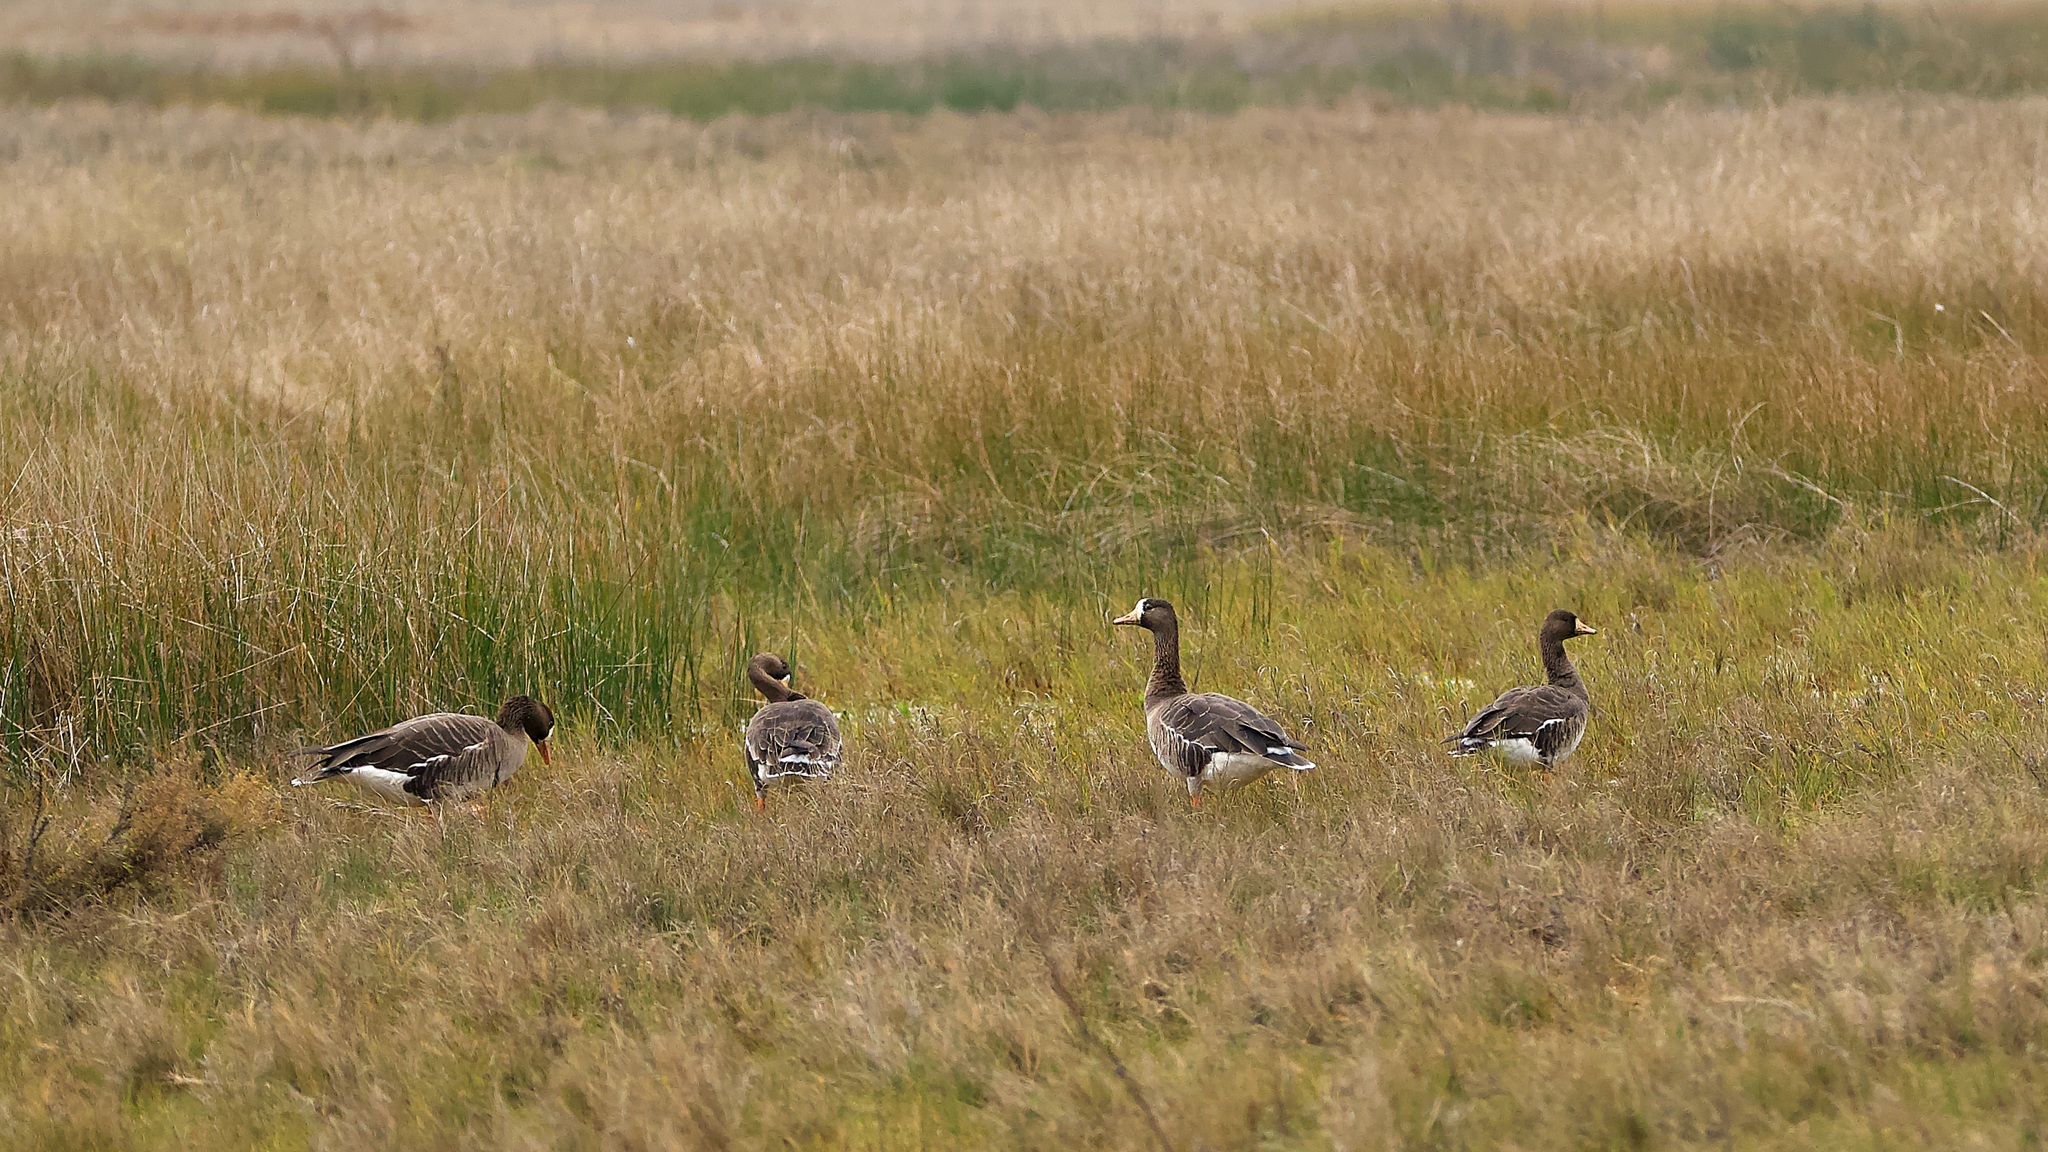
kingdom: Animalia
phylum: Chordata
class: Aves
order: Anseriformes
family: Anatidae
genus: Anser
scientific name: Anser albifrons
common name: Greater white-fronted goose
